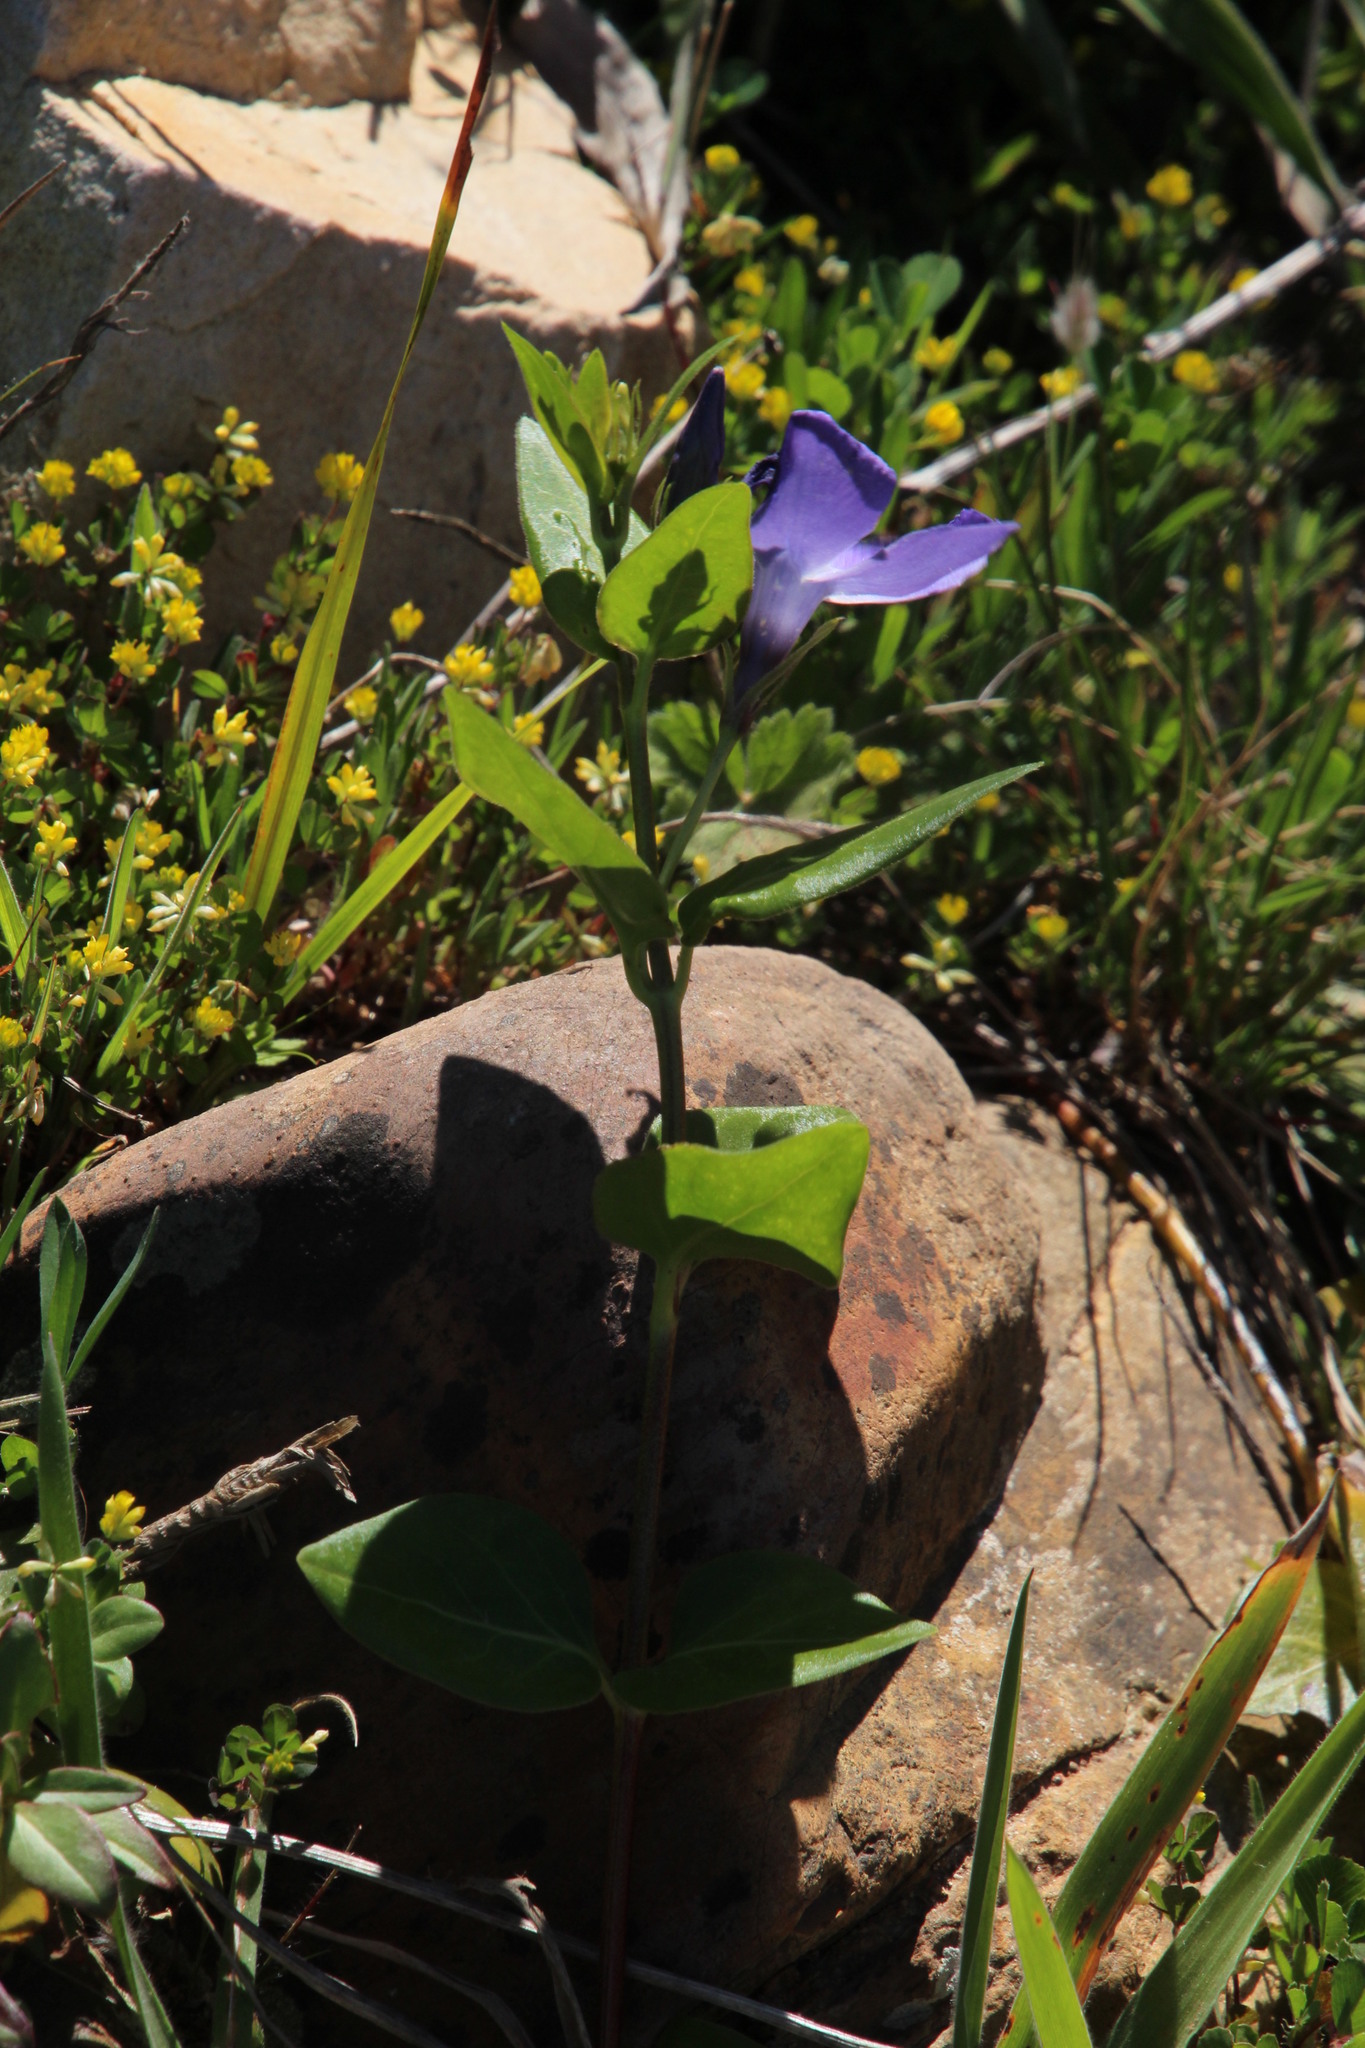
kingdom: Plantae
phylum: Tracheophyta
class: Magnoliopsida
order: Gentianales
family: Apocynaceae
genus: Vinca
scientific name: Vinca major
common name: Greater periwinkle
